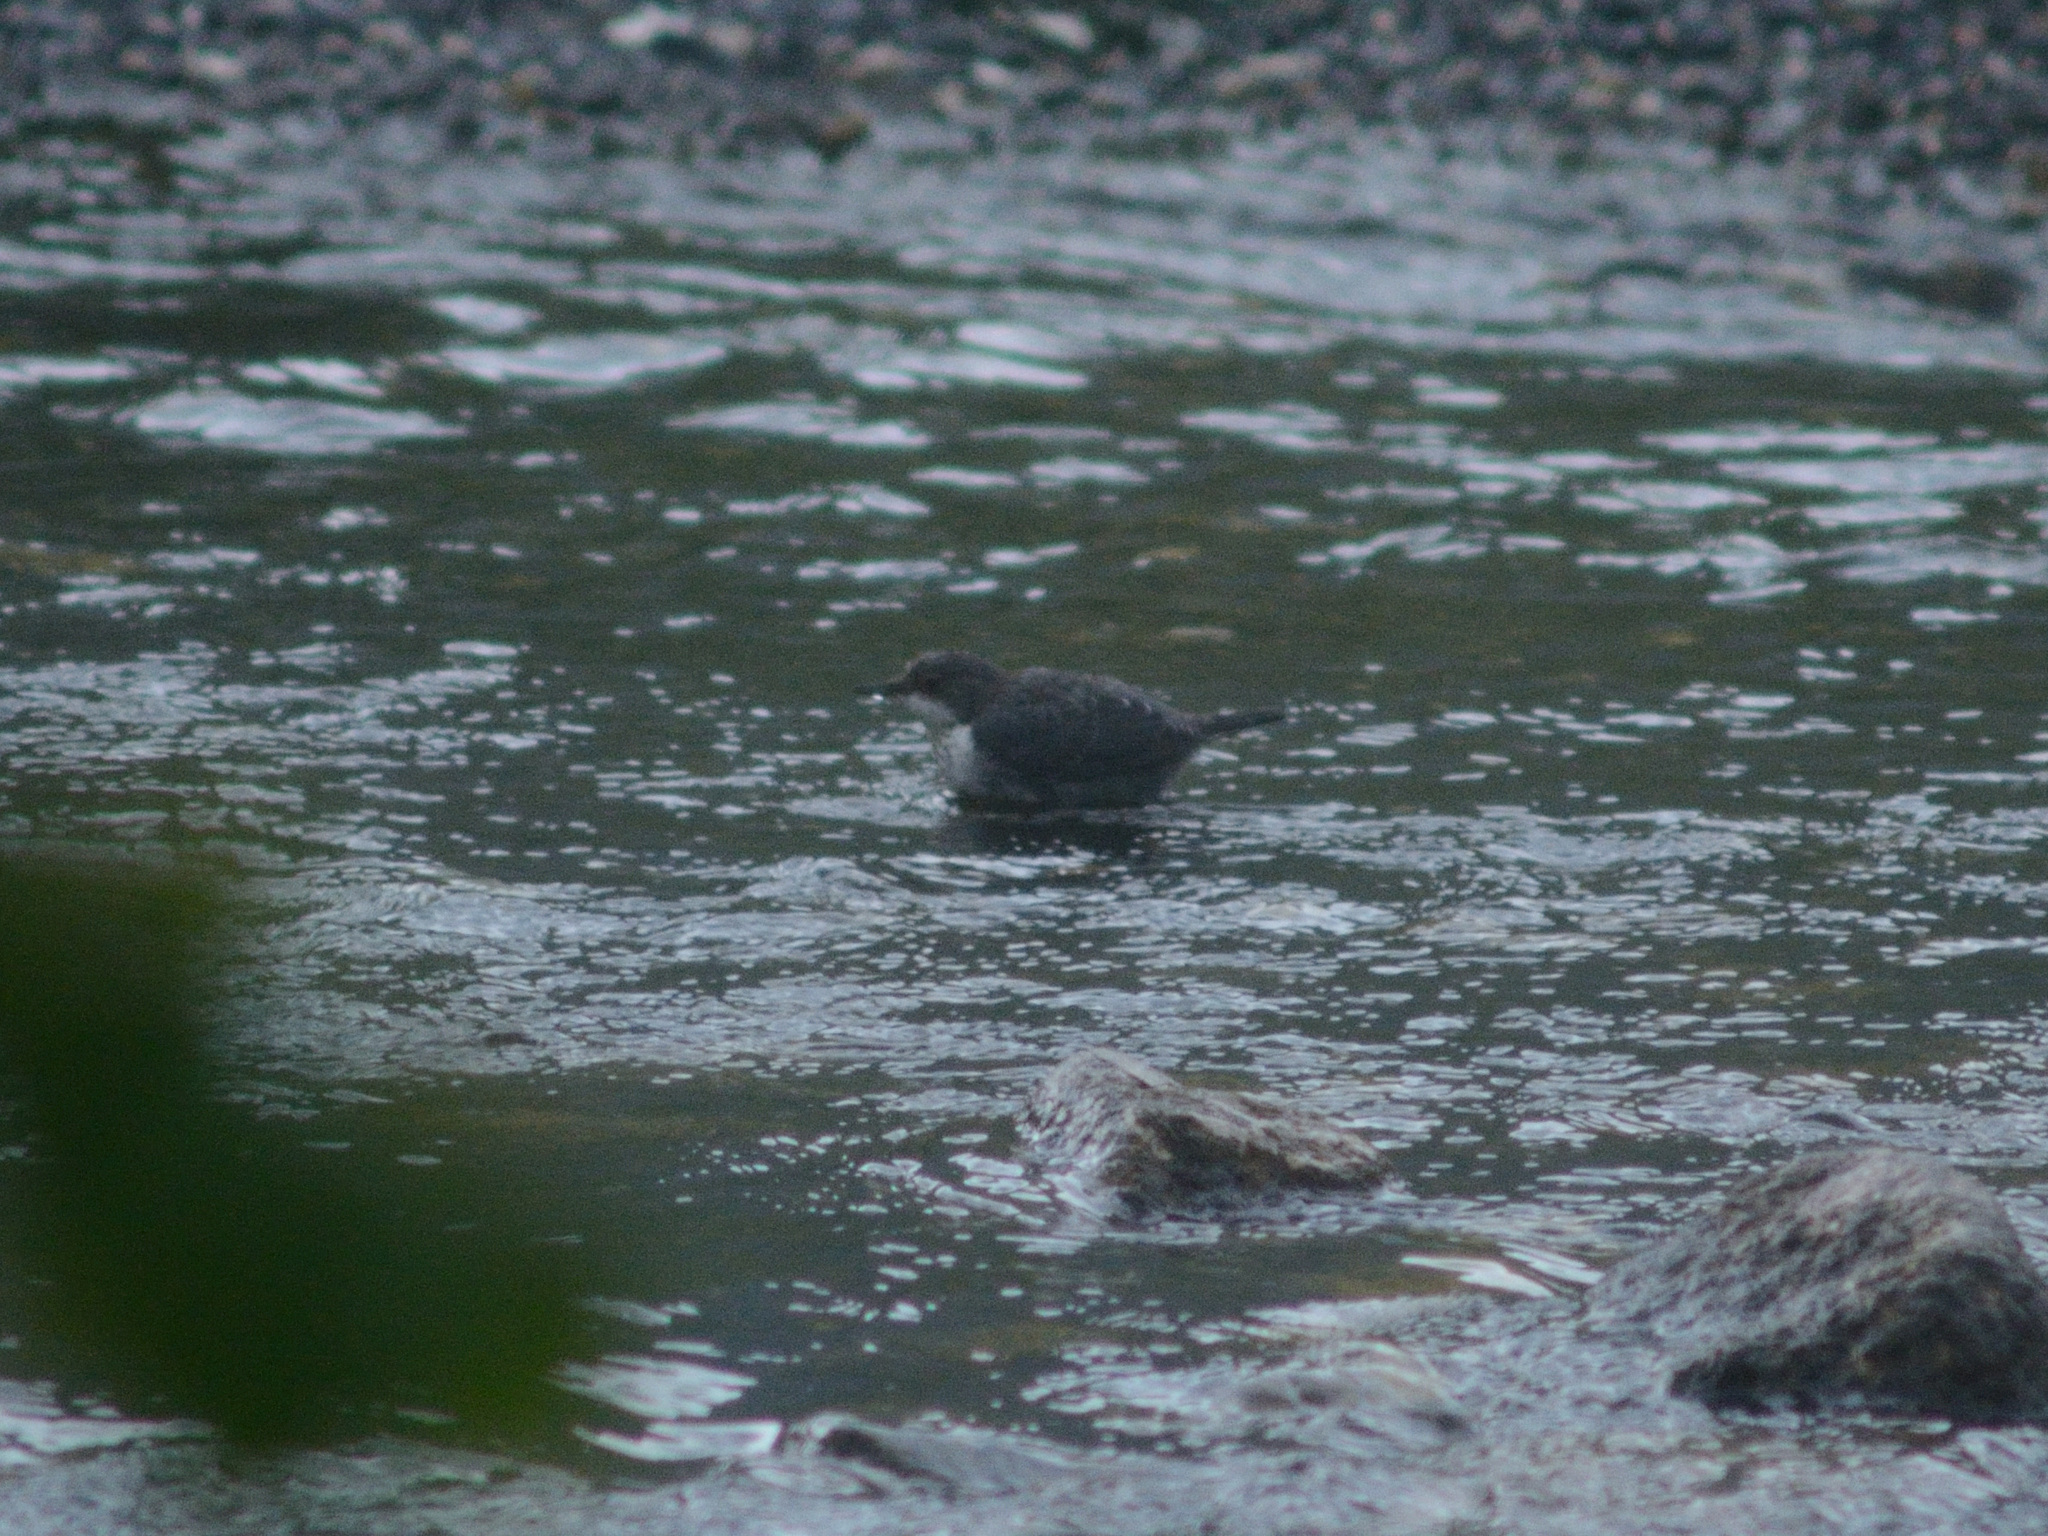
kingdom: Animalia
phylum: Chordata
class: Aves
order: Passeriformes
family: Cinclidae
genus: Cinclus
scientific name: Cinclus cinclus
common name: White-throated dipper
